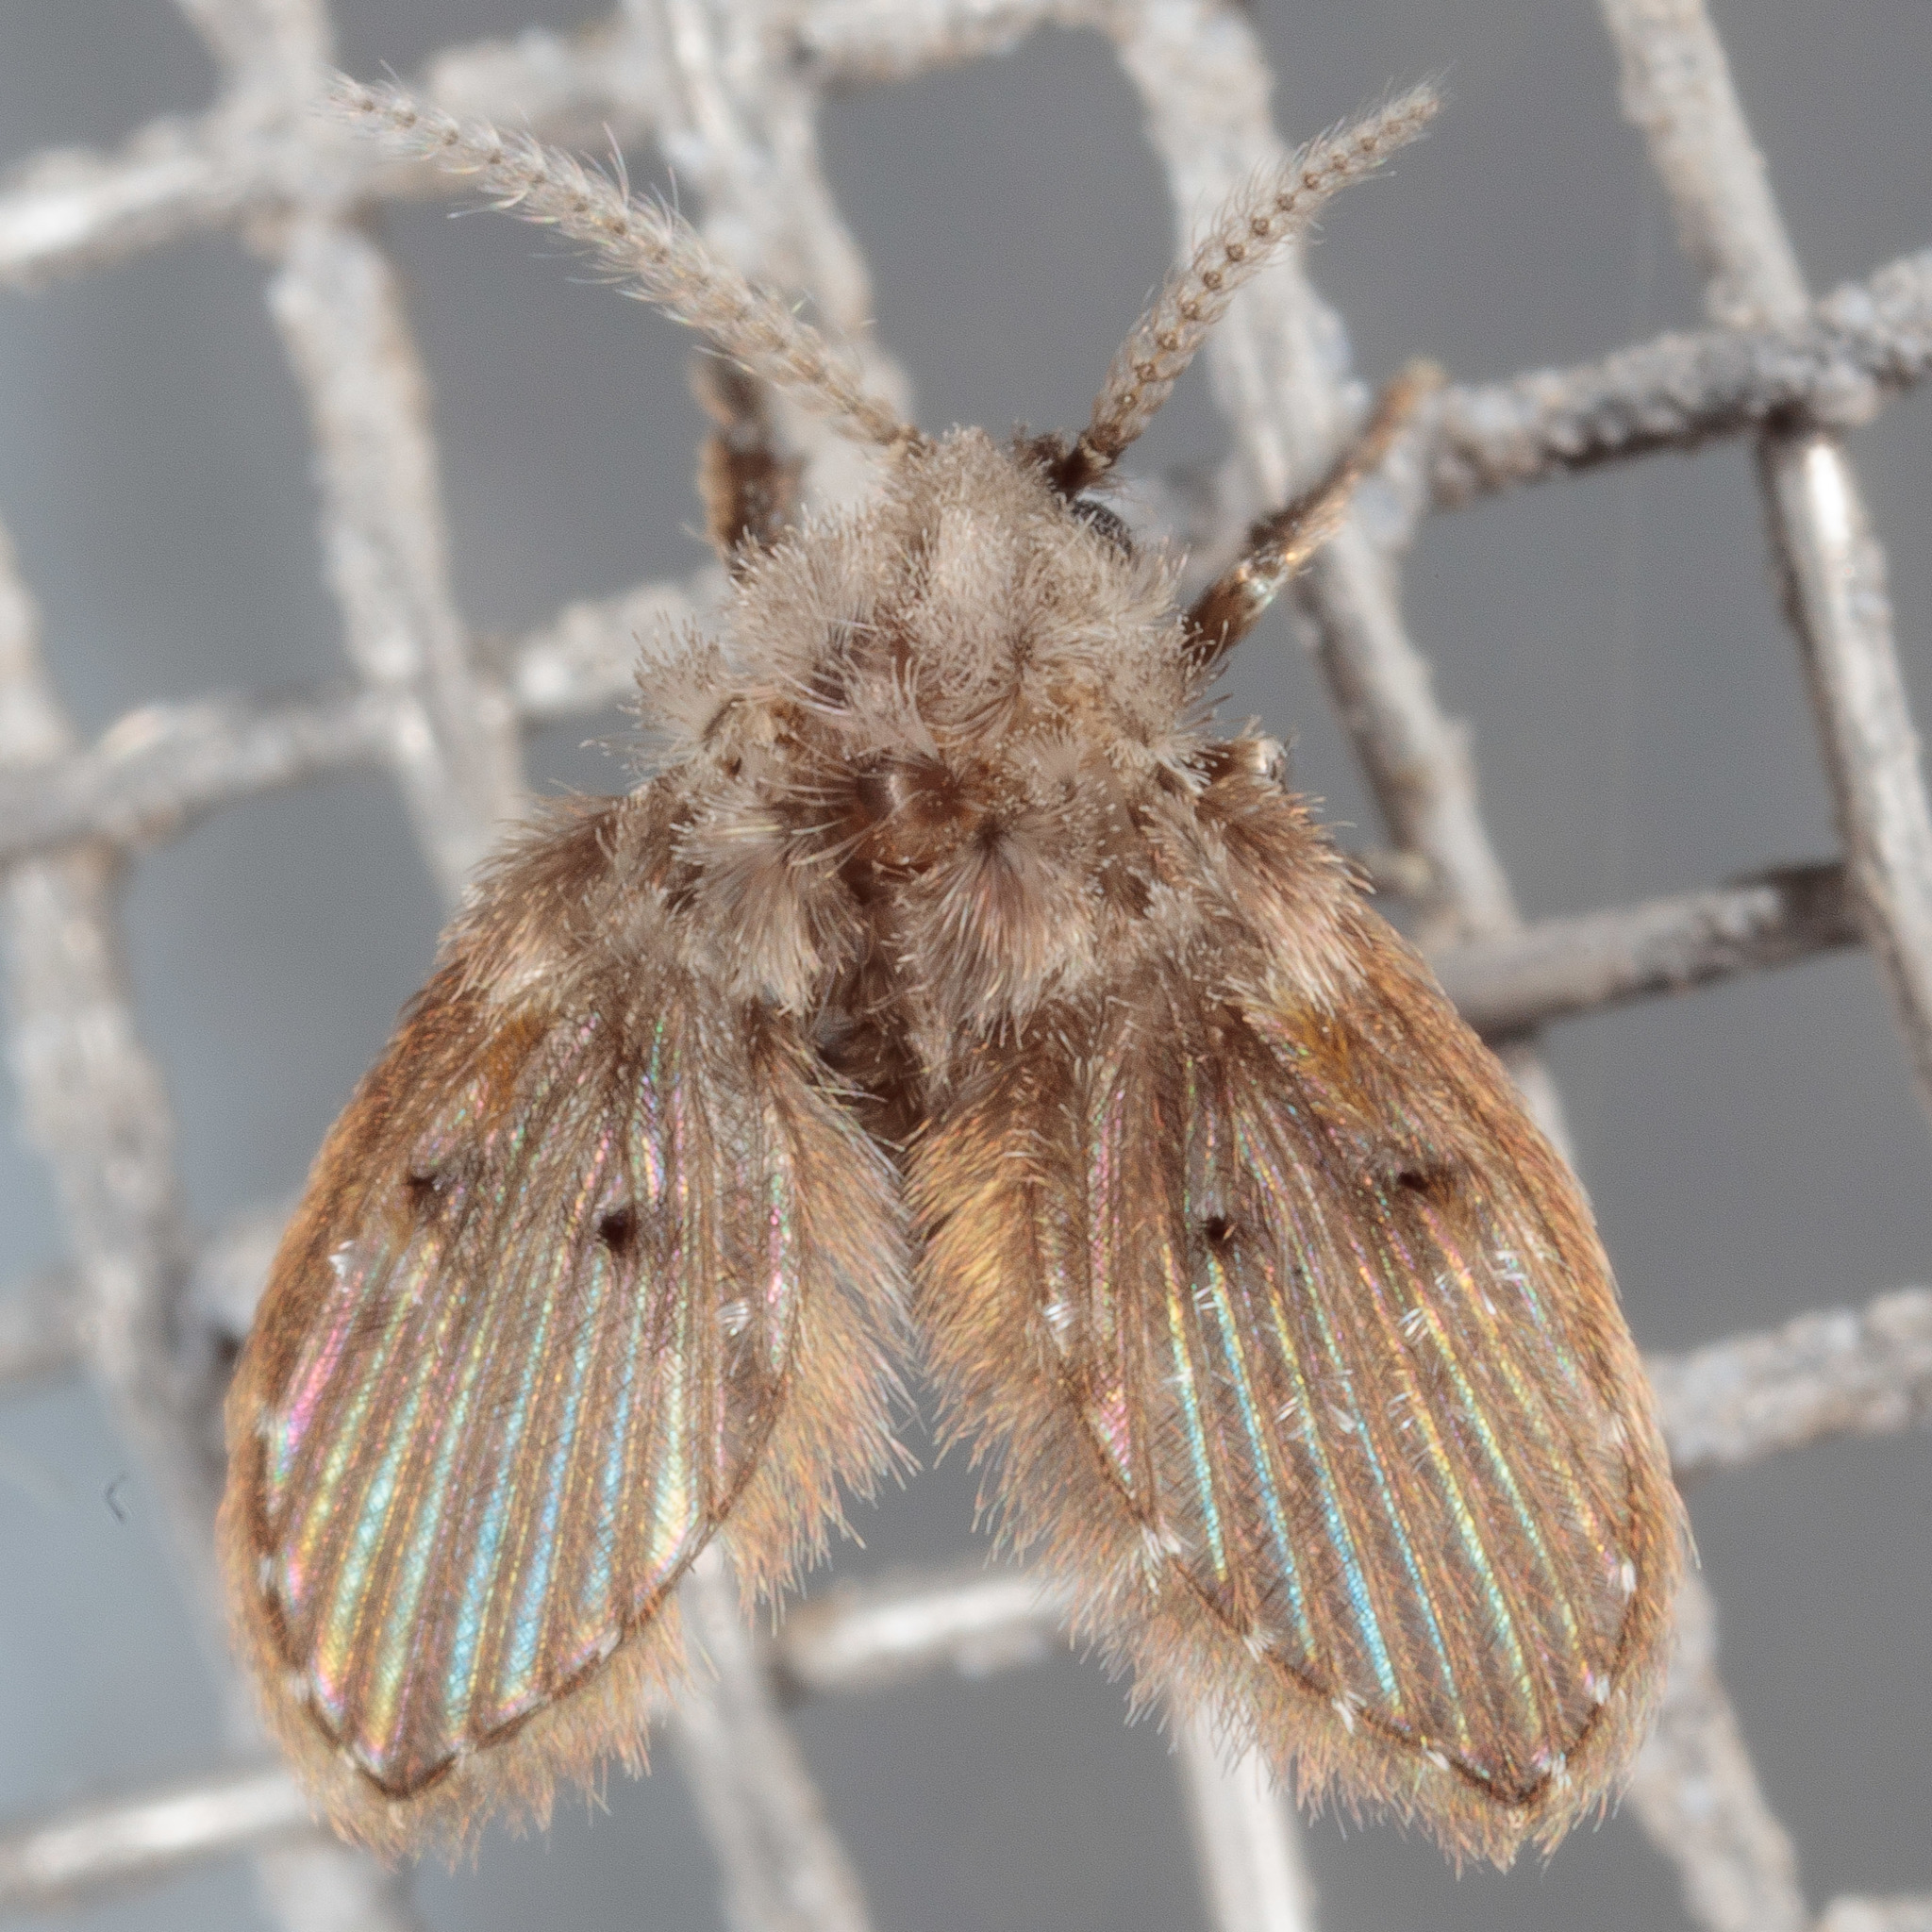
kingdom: Animalia
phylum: Arthropoda
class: Insecta
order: Diptera
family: Psychodidae
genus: Clogmia
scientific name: Clogmia albipunctatus
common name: White-spotted moth fly
